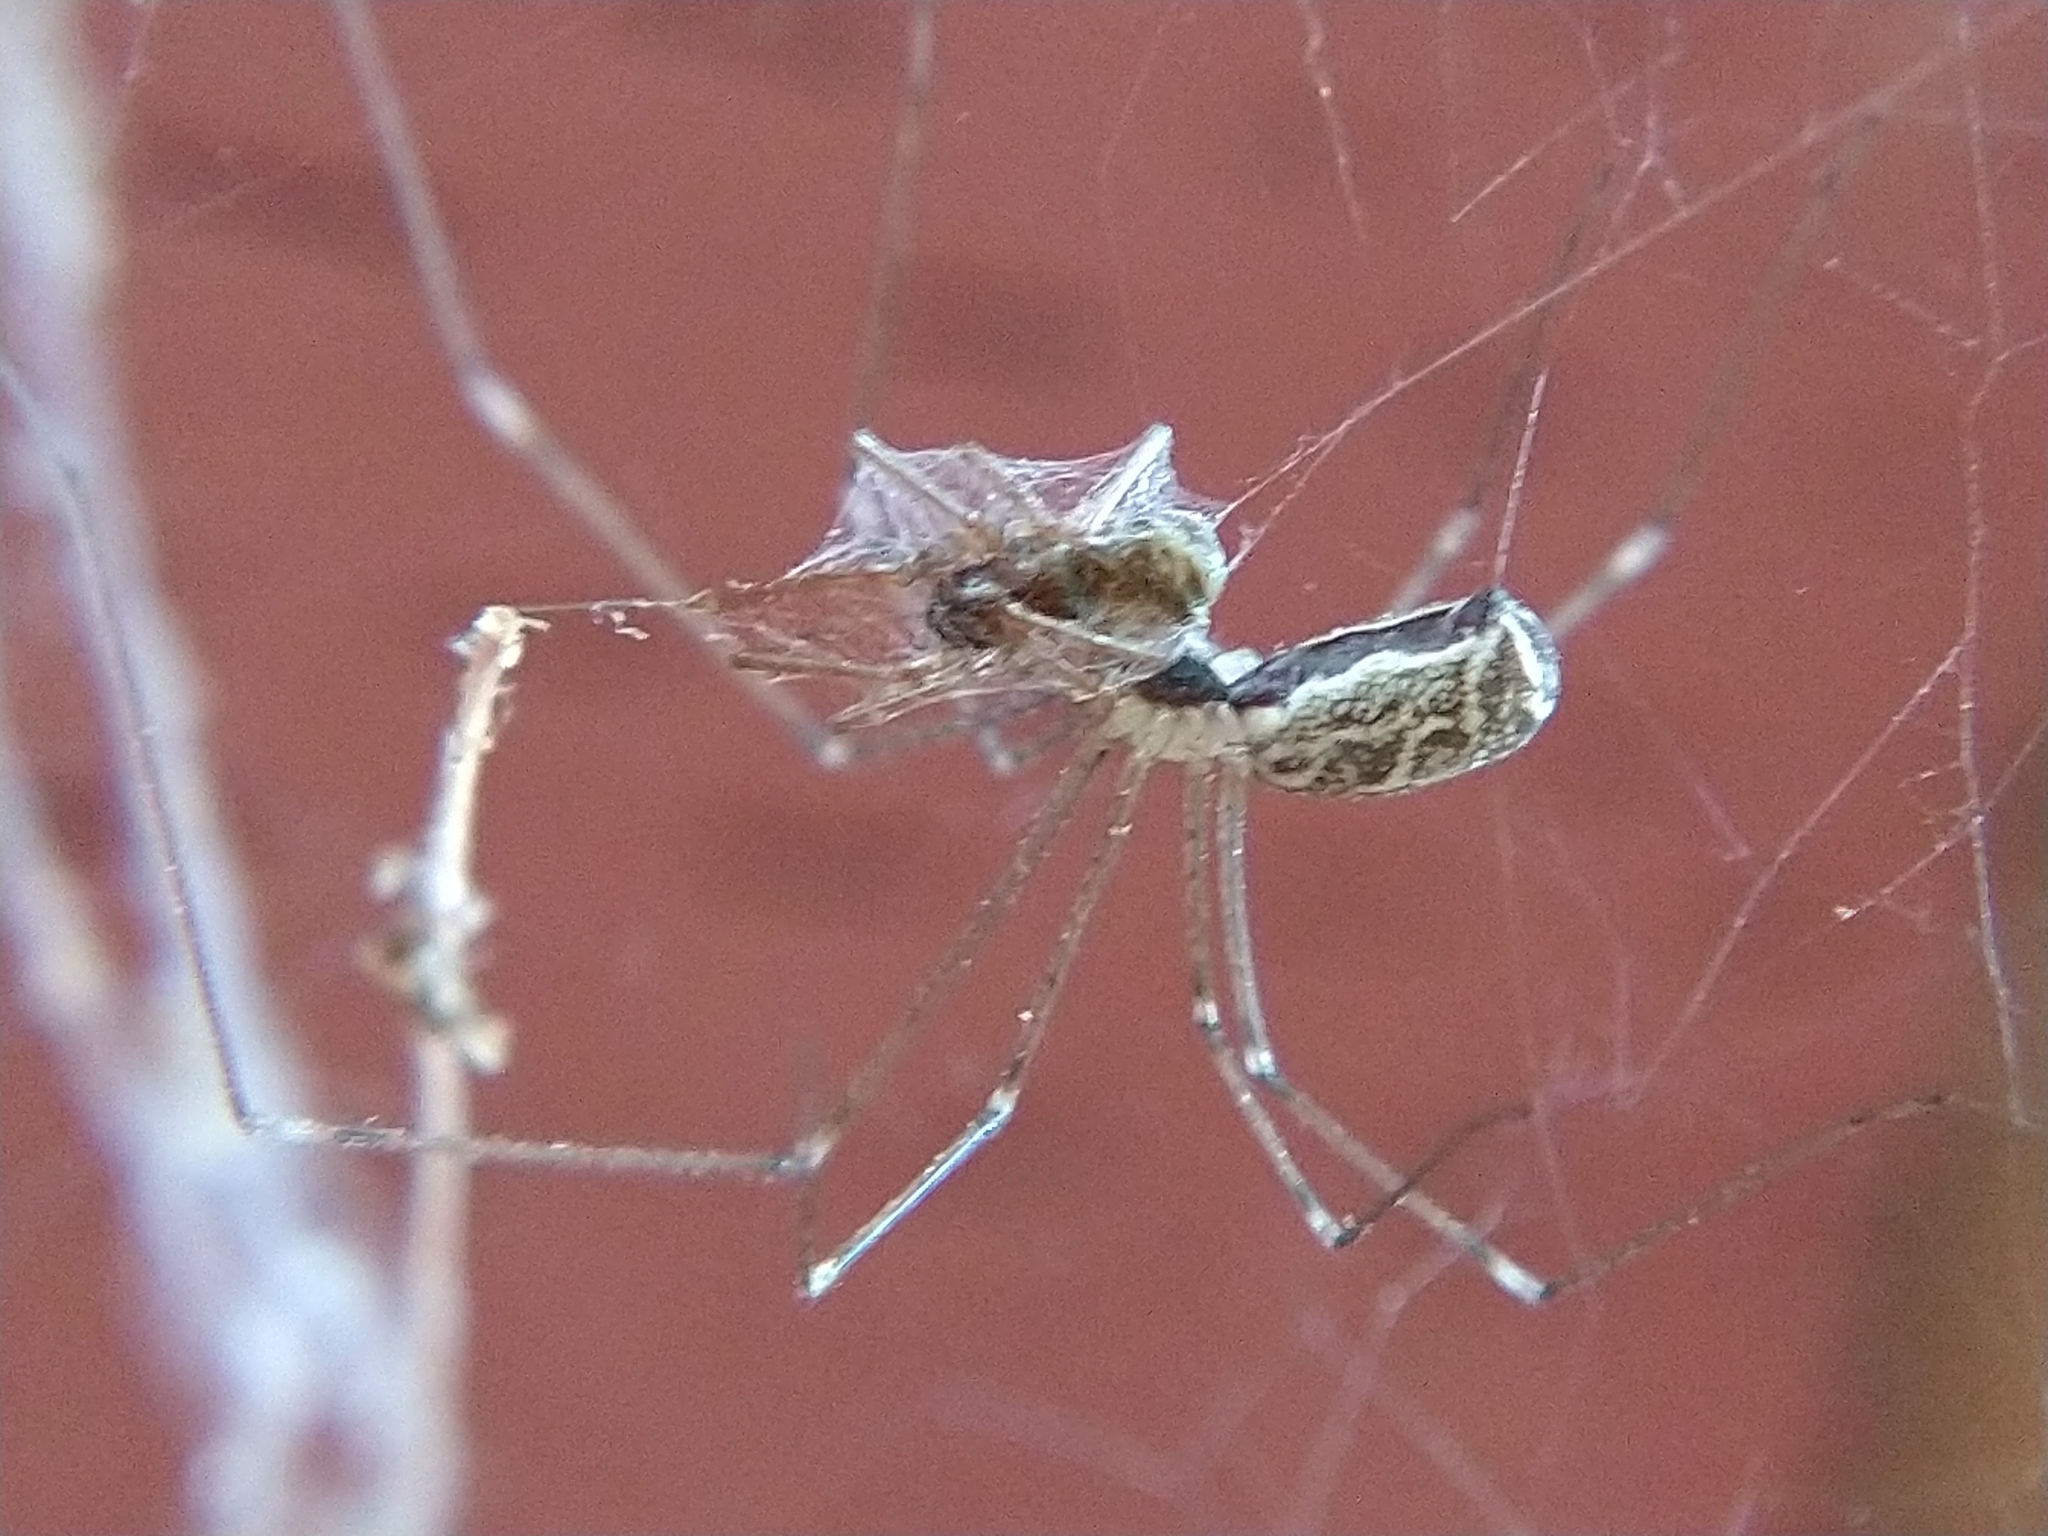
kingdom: Animalia
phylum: Arthropoda
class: Arachnida
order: Araneae
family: Pholcidae
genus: Holocnemus
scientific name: Holocnemus pluchei
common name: Marbled cellar spider
